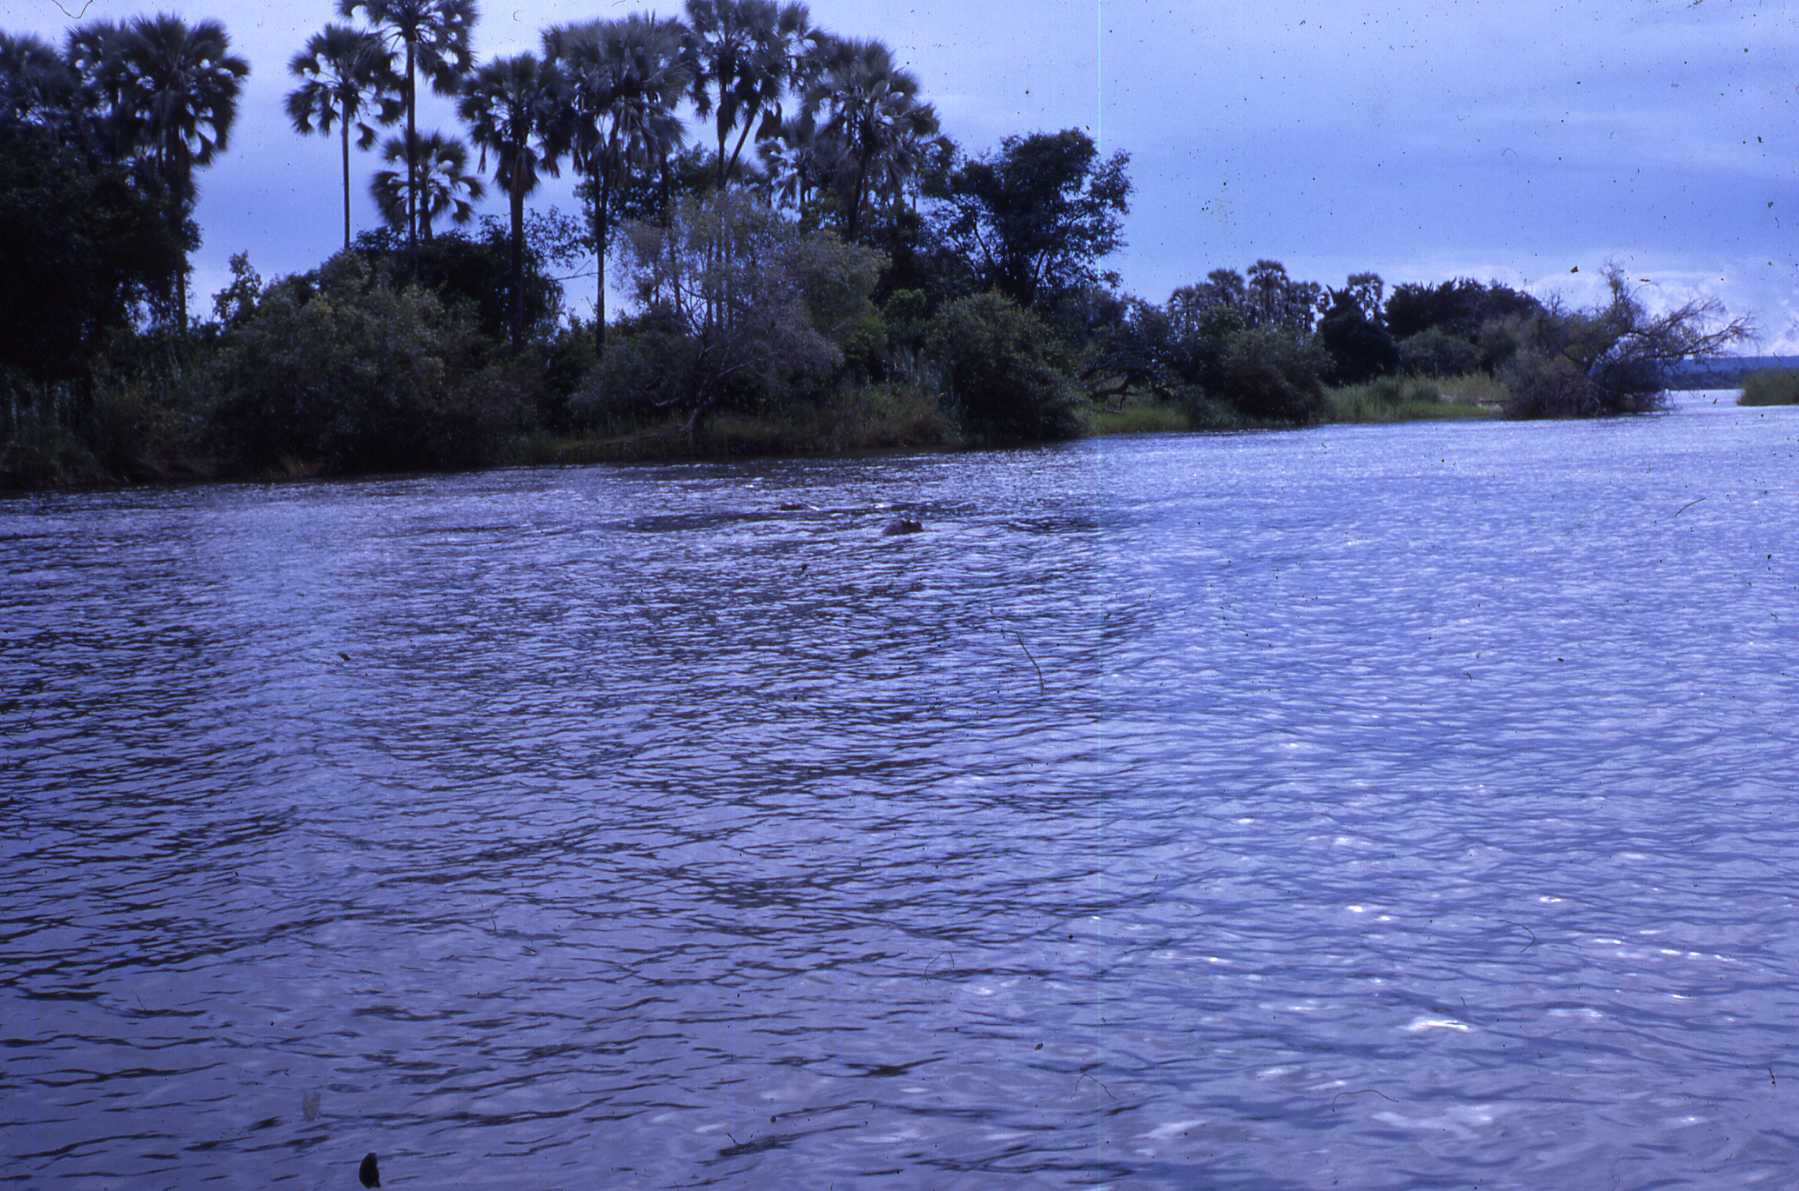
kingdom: Animalia
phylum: Chordata
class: Mammalia
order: Artiodactyla
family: Hippopotamidae
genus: Hippopotamus
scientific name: Hippopotamus amphibius
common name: Common hippopotamus
